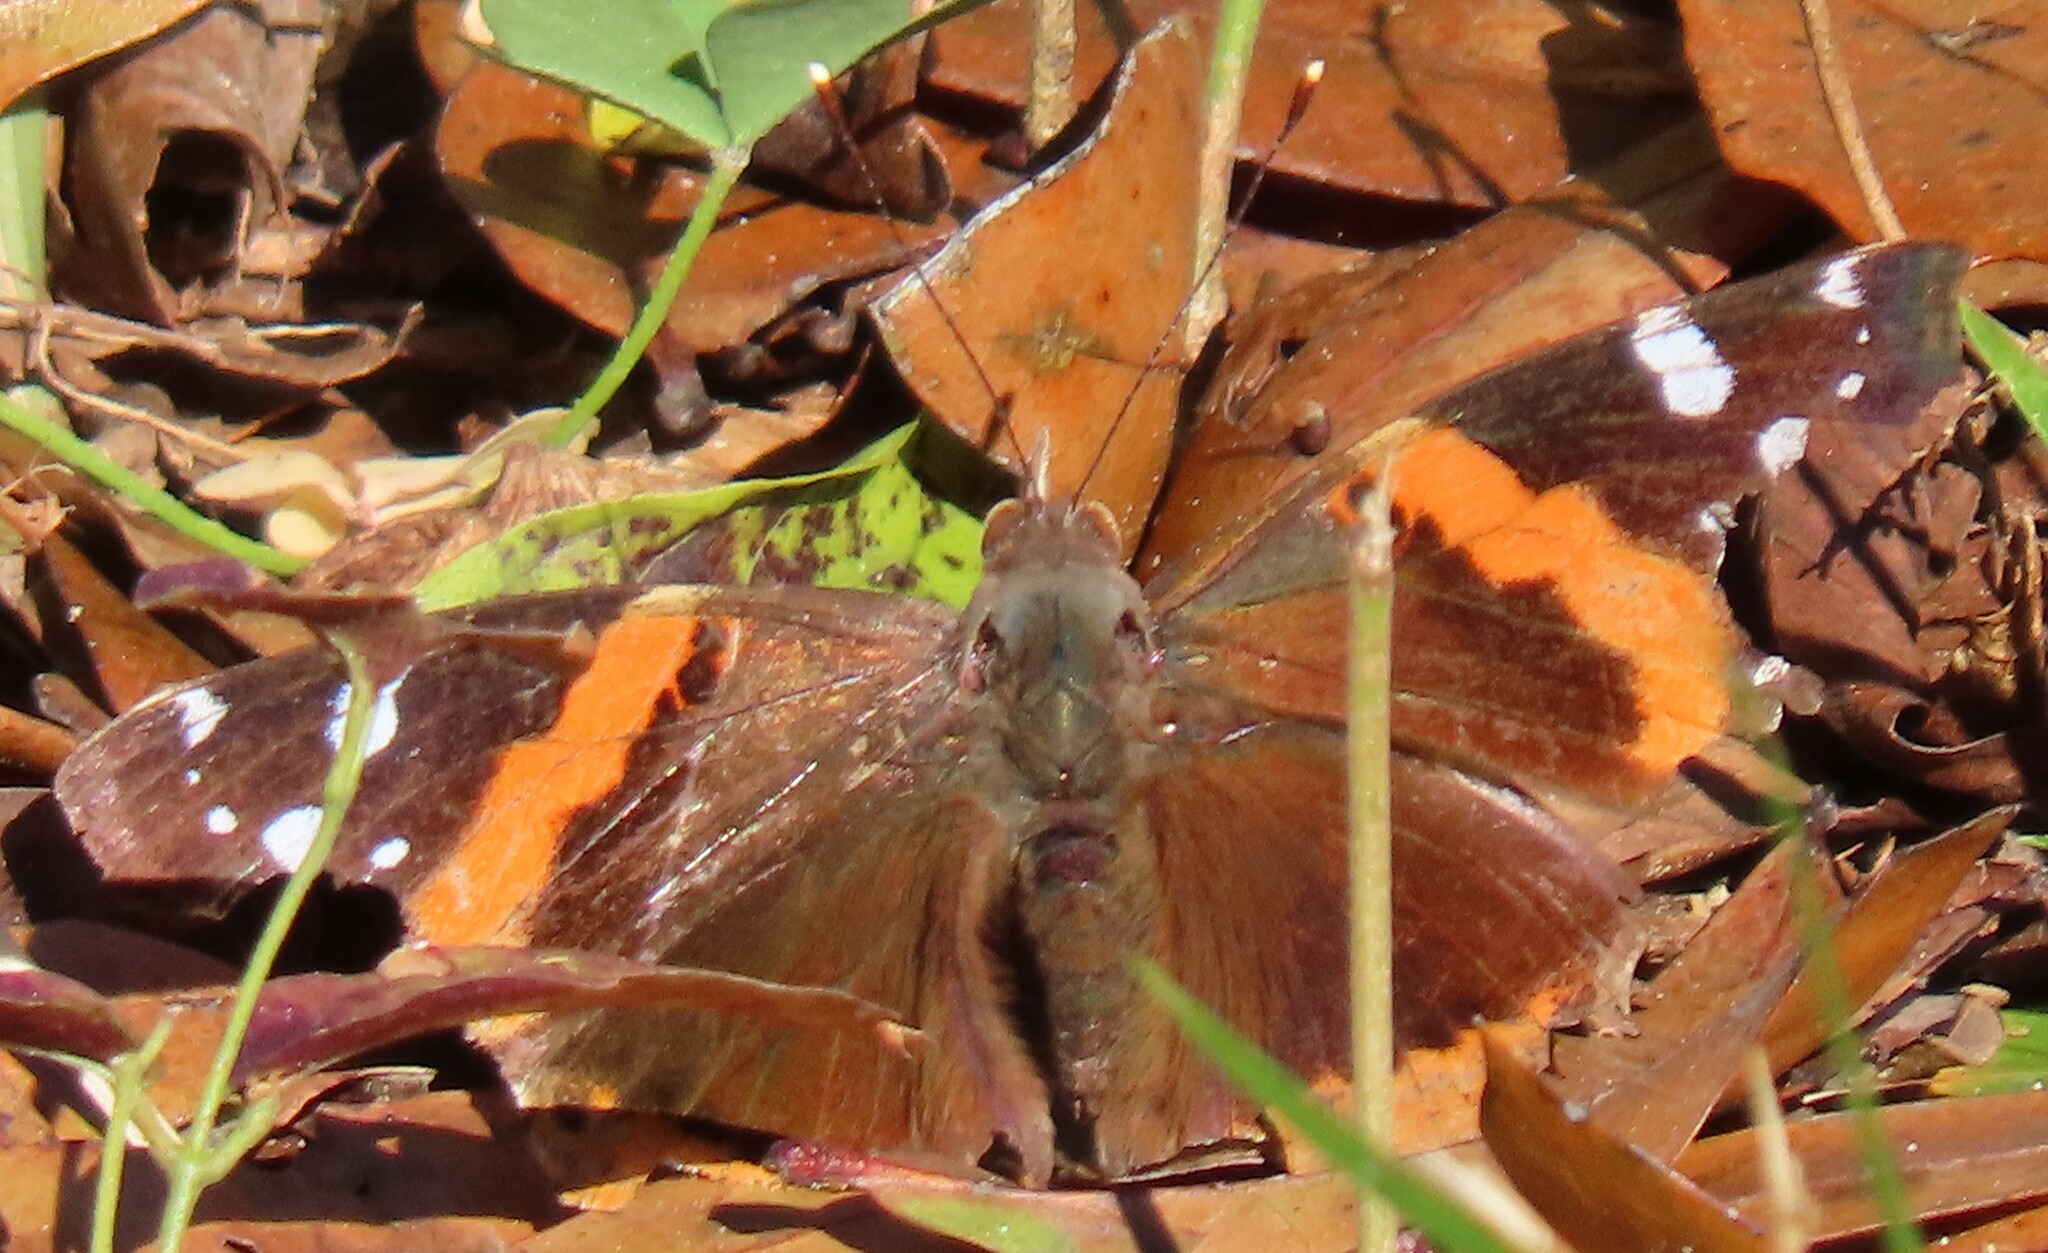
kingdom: Animalia
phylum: Arthropoda
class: Insecta
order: Lepidoptera
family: Nymphalidae
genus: Vanessa
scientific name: Vanessa atalanta
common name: Red admiral
